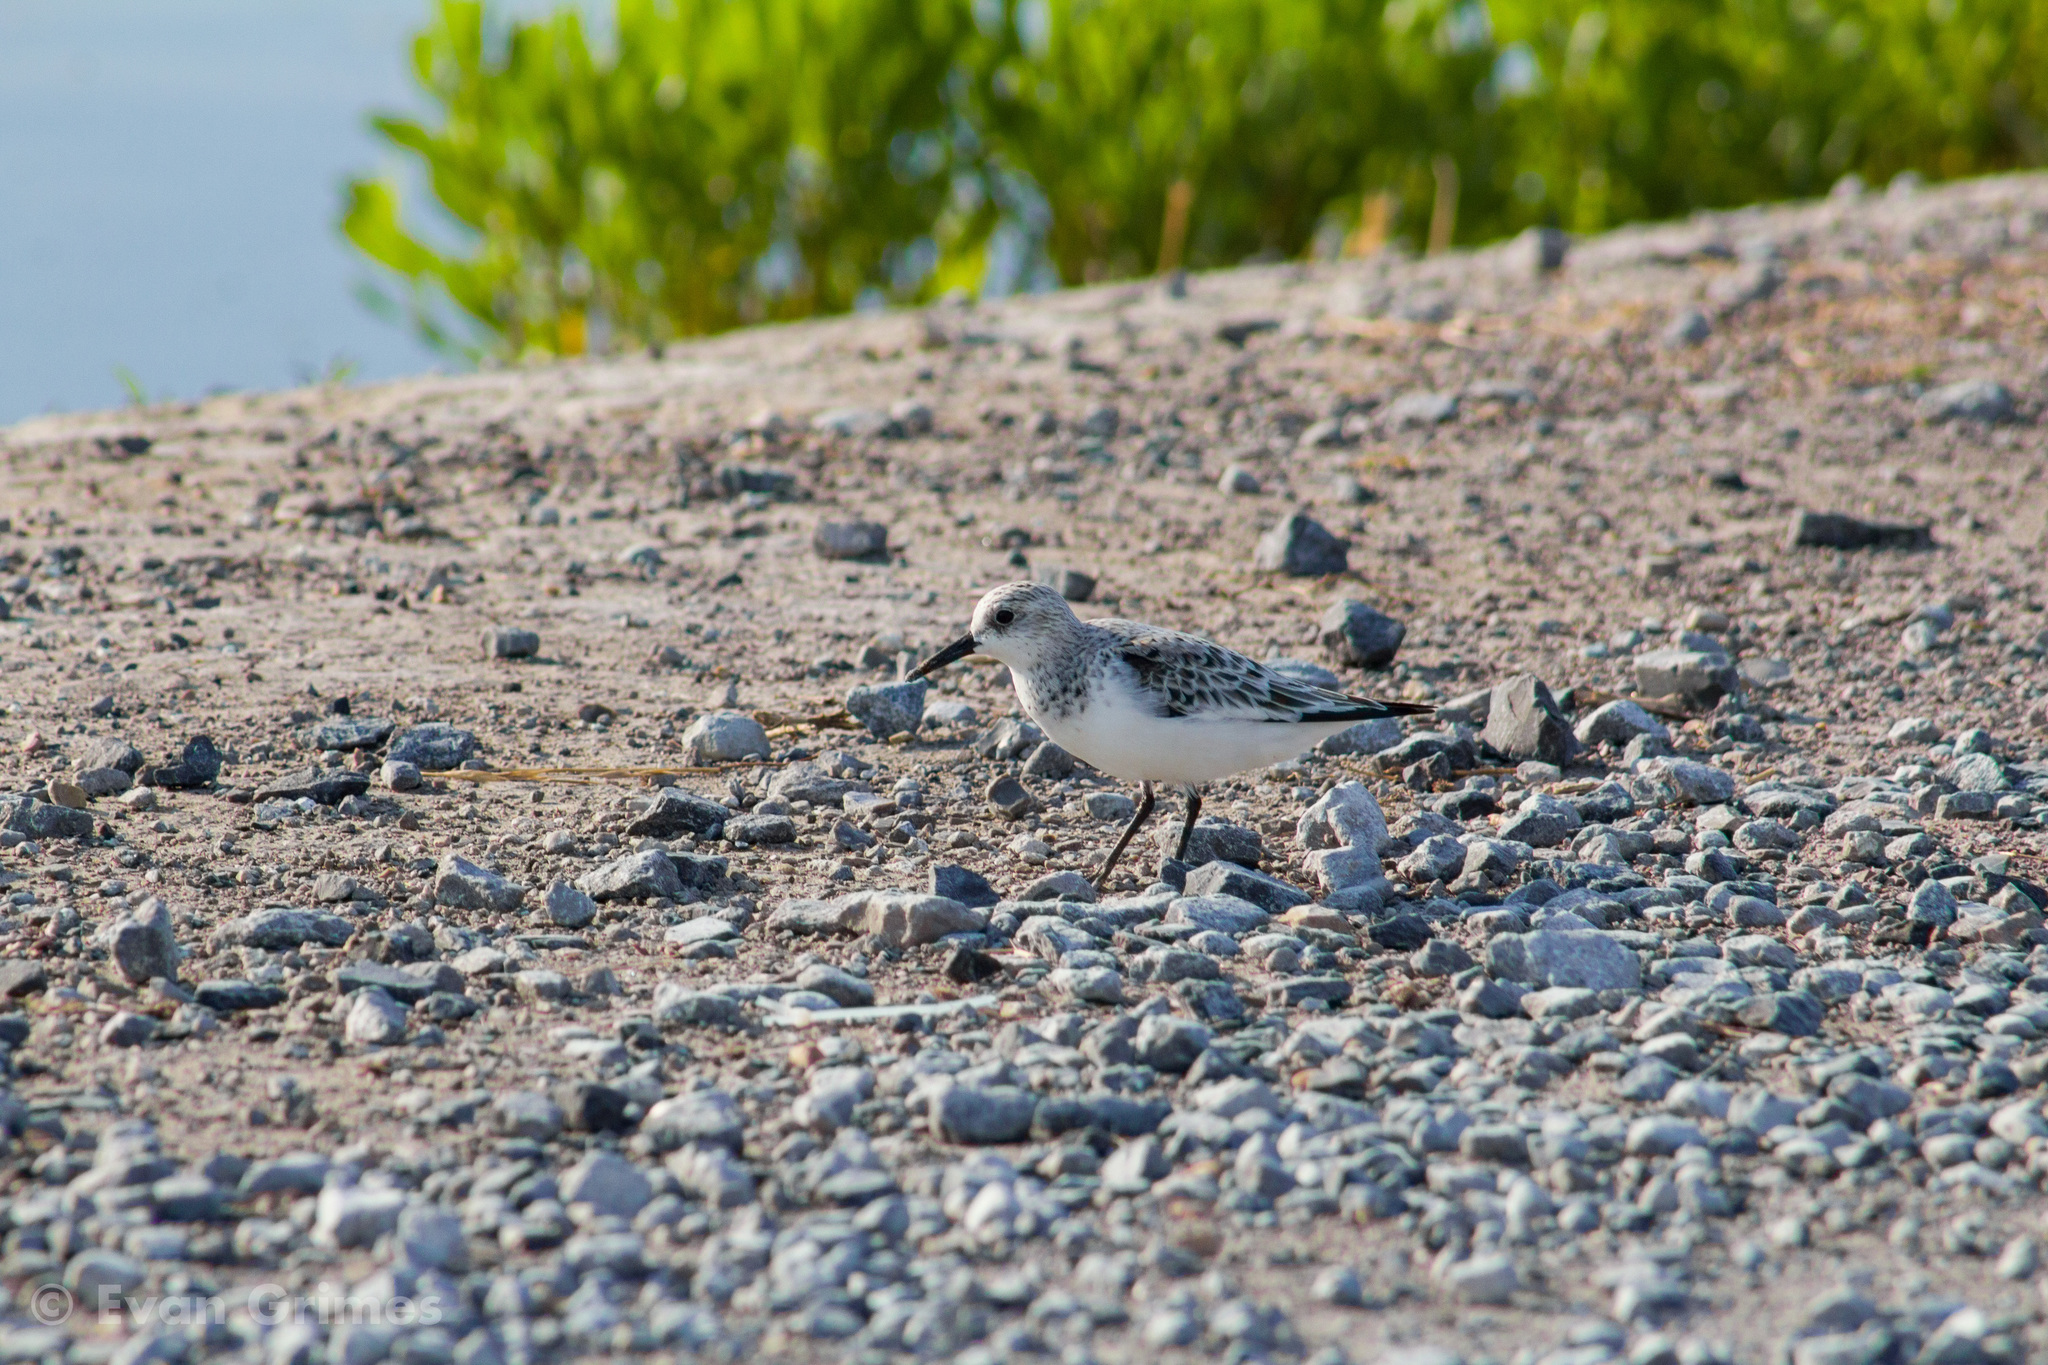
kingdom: Animalia
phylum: Chordata
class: Aves
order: Charadriiformes
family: Scolopacidae
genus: Calidris
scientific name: Calidris alba
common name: Sanderling
